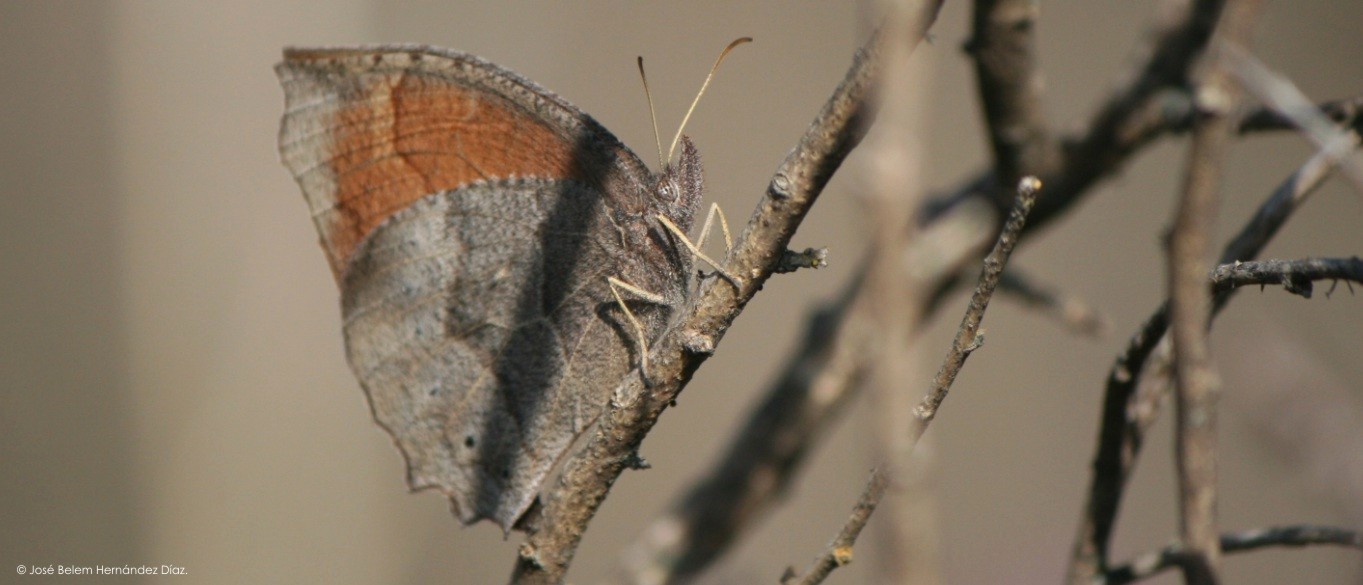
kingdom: Animalia
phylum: Arthropoda
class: Insecta
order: Lepidoptera
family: Nymphalidae
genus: Pindis
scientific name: Pindis squamistriga
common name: Variable satyr
